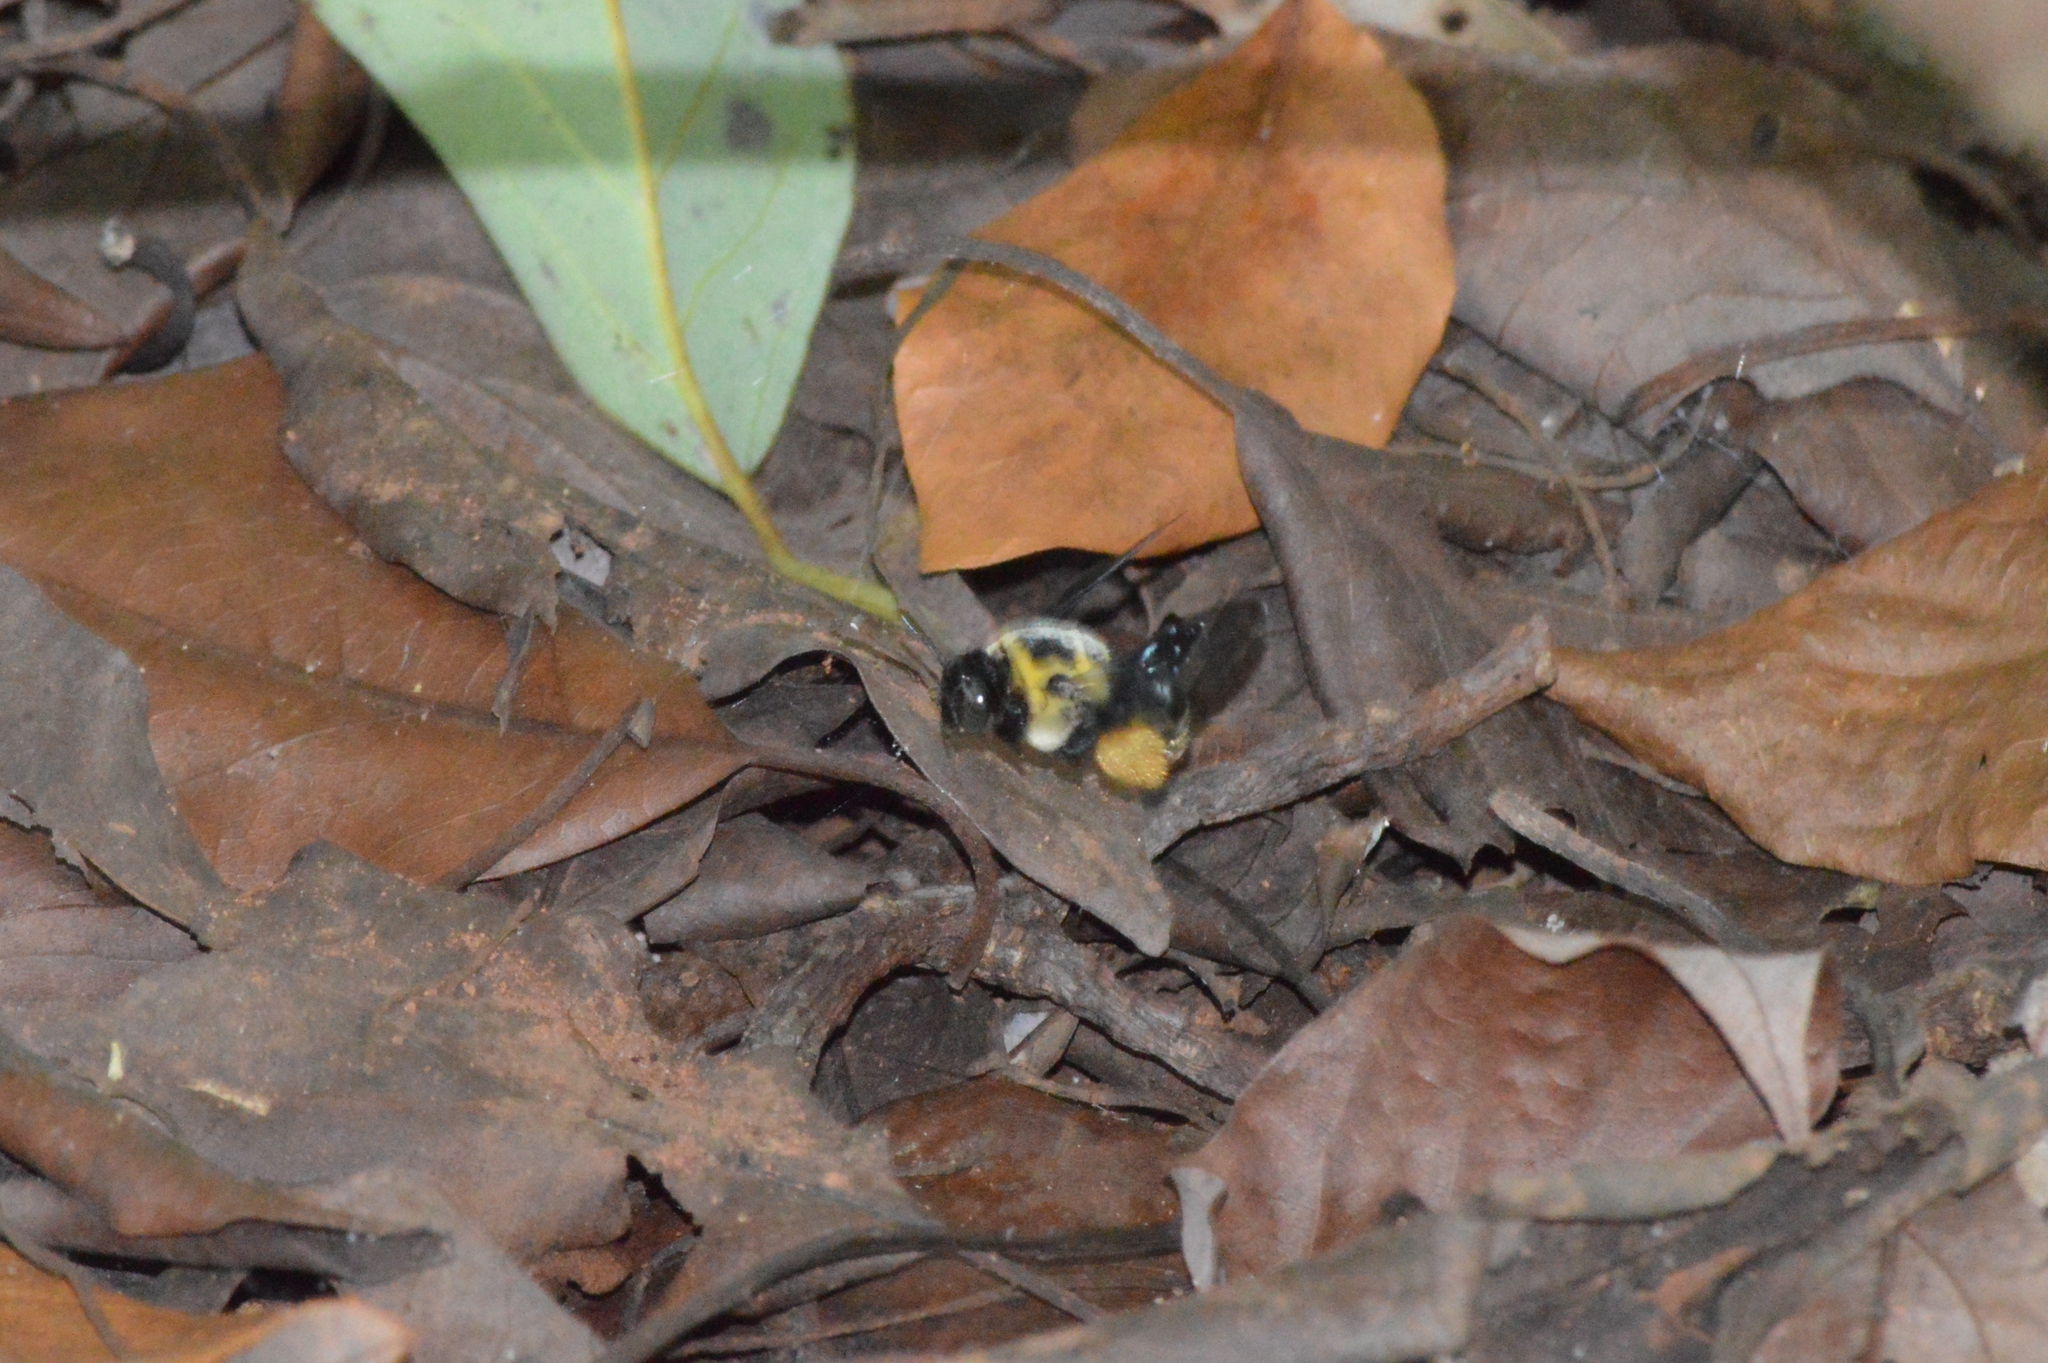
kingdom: Animalia
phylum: Arthropoda
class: Insecta
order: Hymenoptera
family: Apidae
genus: Centris
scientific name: Centris mocsaryi
